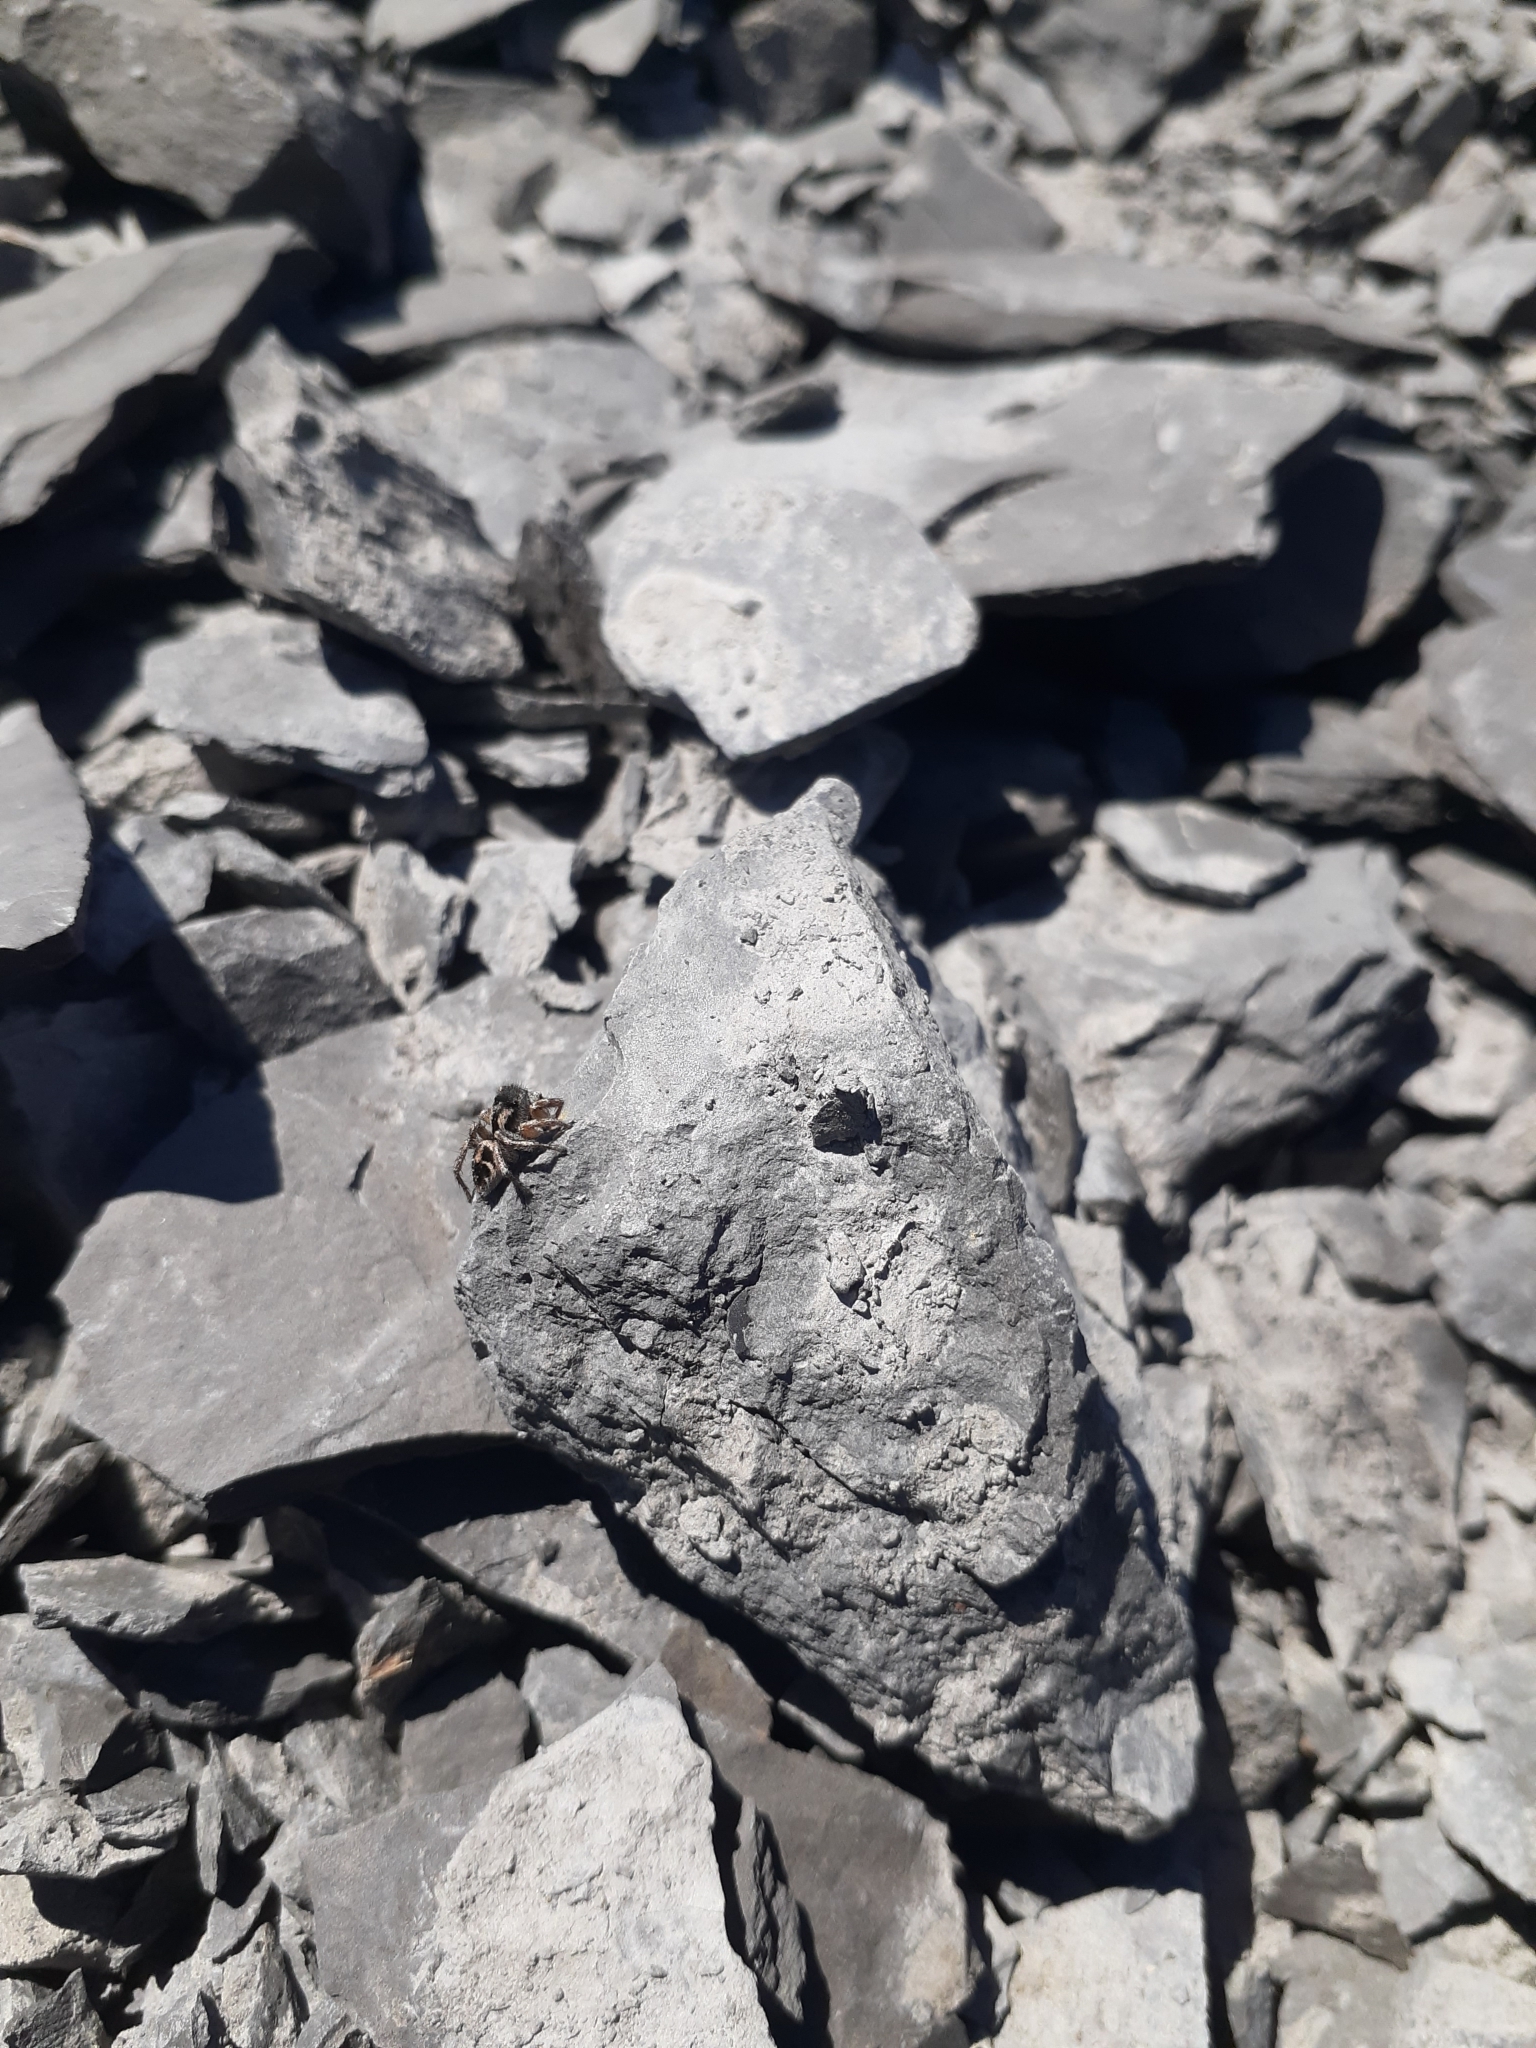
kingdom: Animalia
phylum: Arthropoda
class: Arachnida
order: Araneae
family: Salticidae
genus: Habronattus
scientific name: Habronattus borealis
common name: Boreal paradise spider
